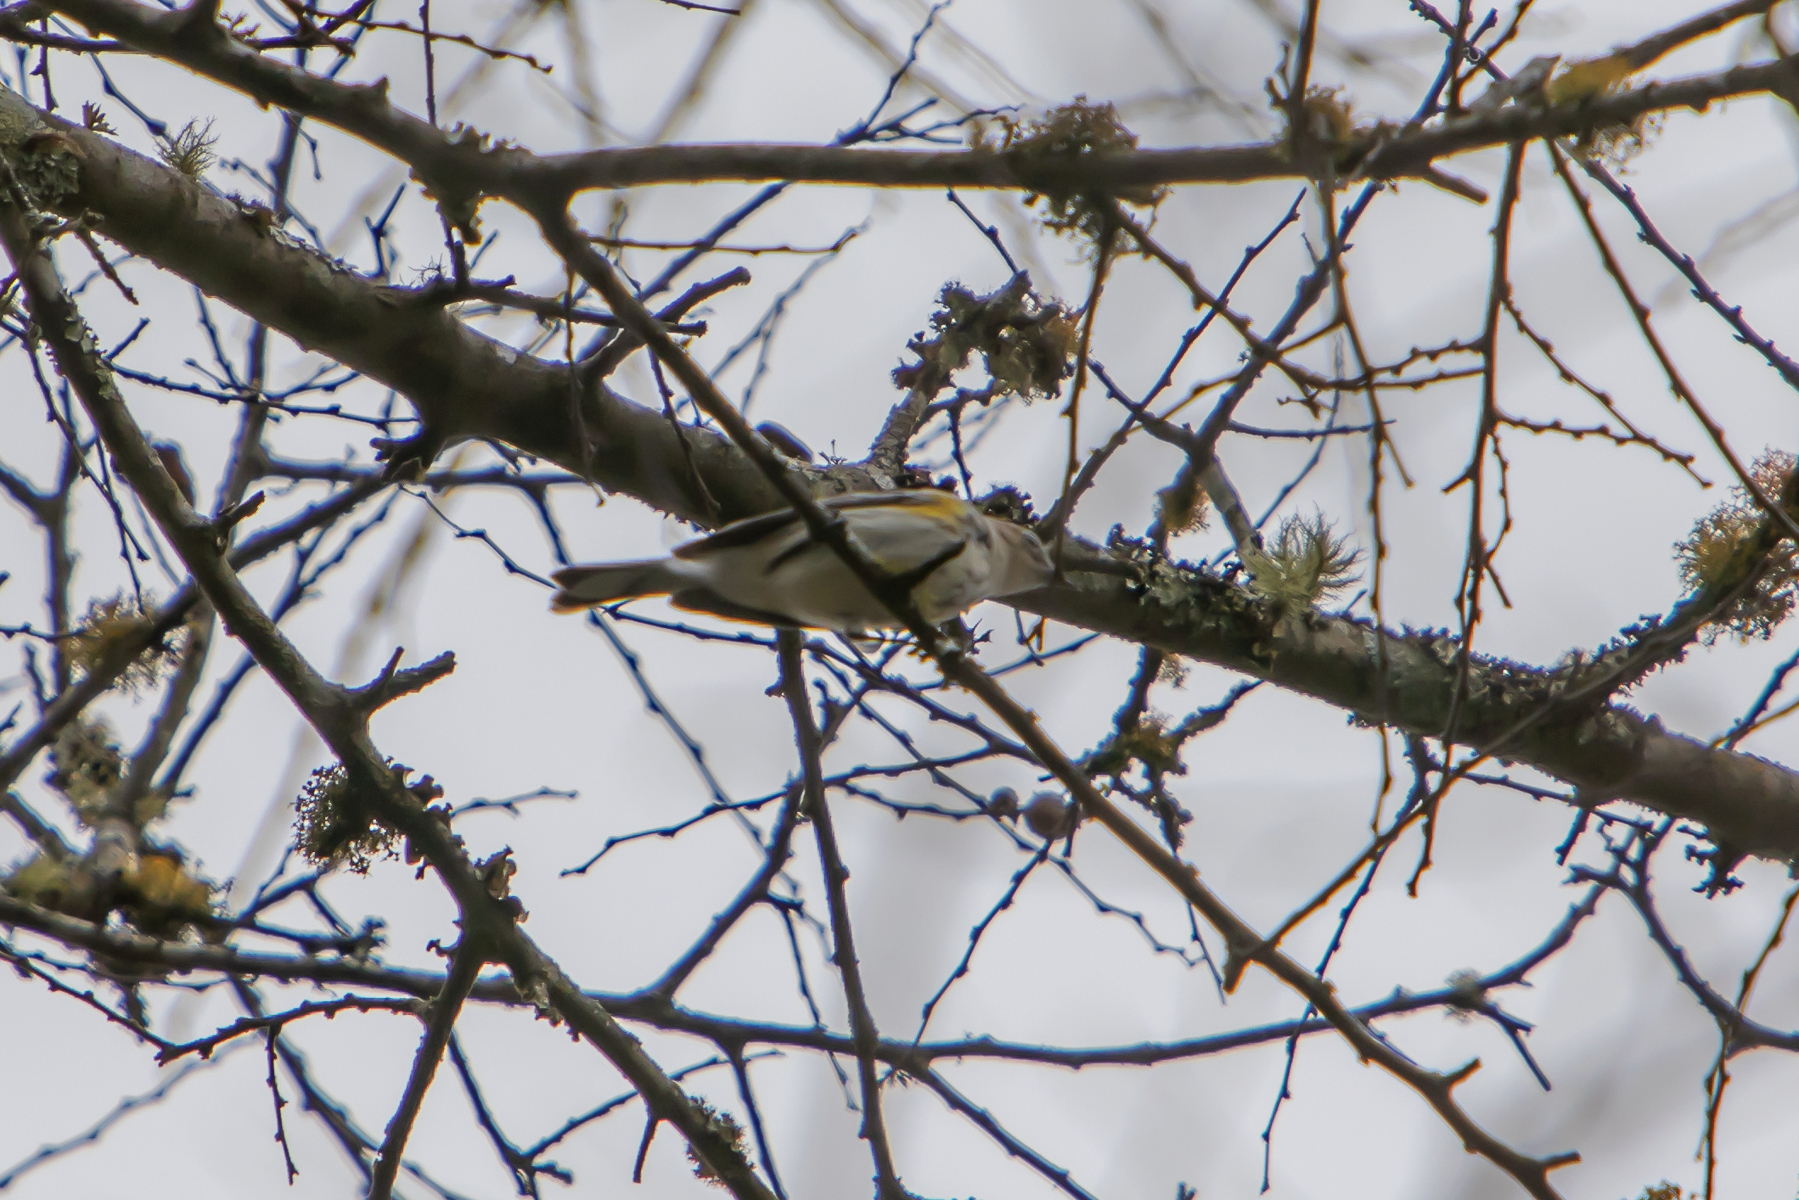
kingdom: Animalia
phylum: Chordata
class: Aves
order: Passeriformes
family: Parulidae
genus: Setophaga
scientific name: Setophaga coronata
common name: Myrtle warbler
